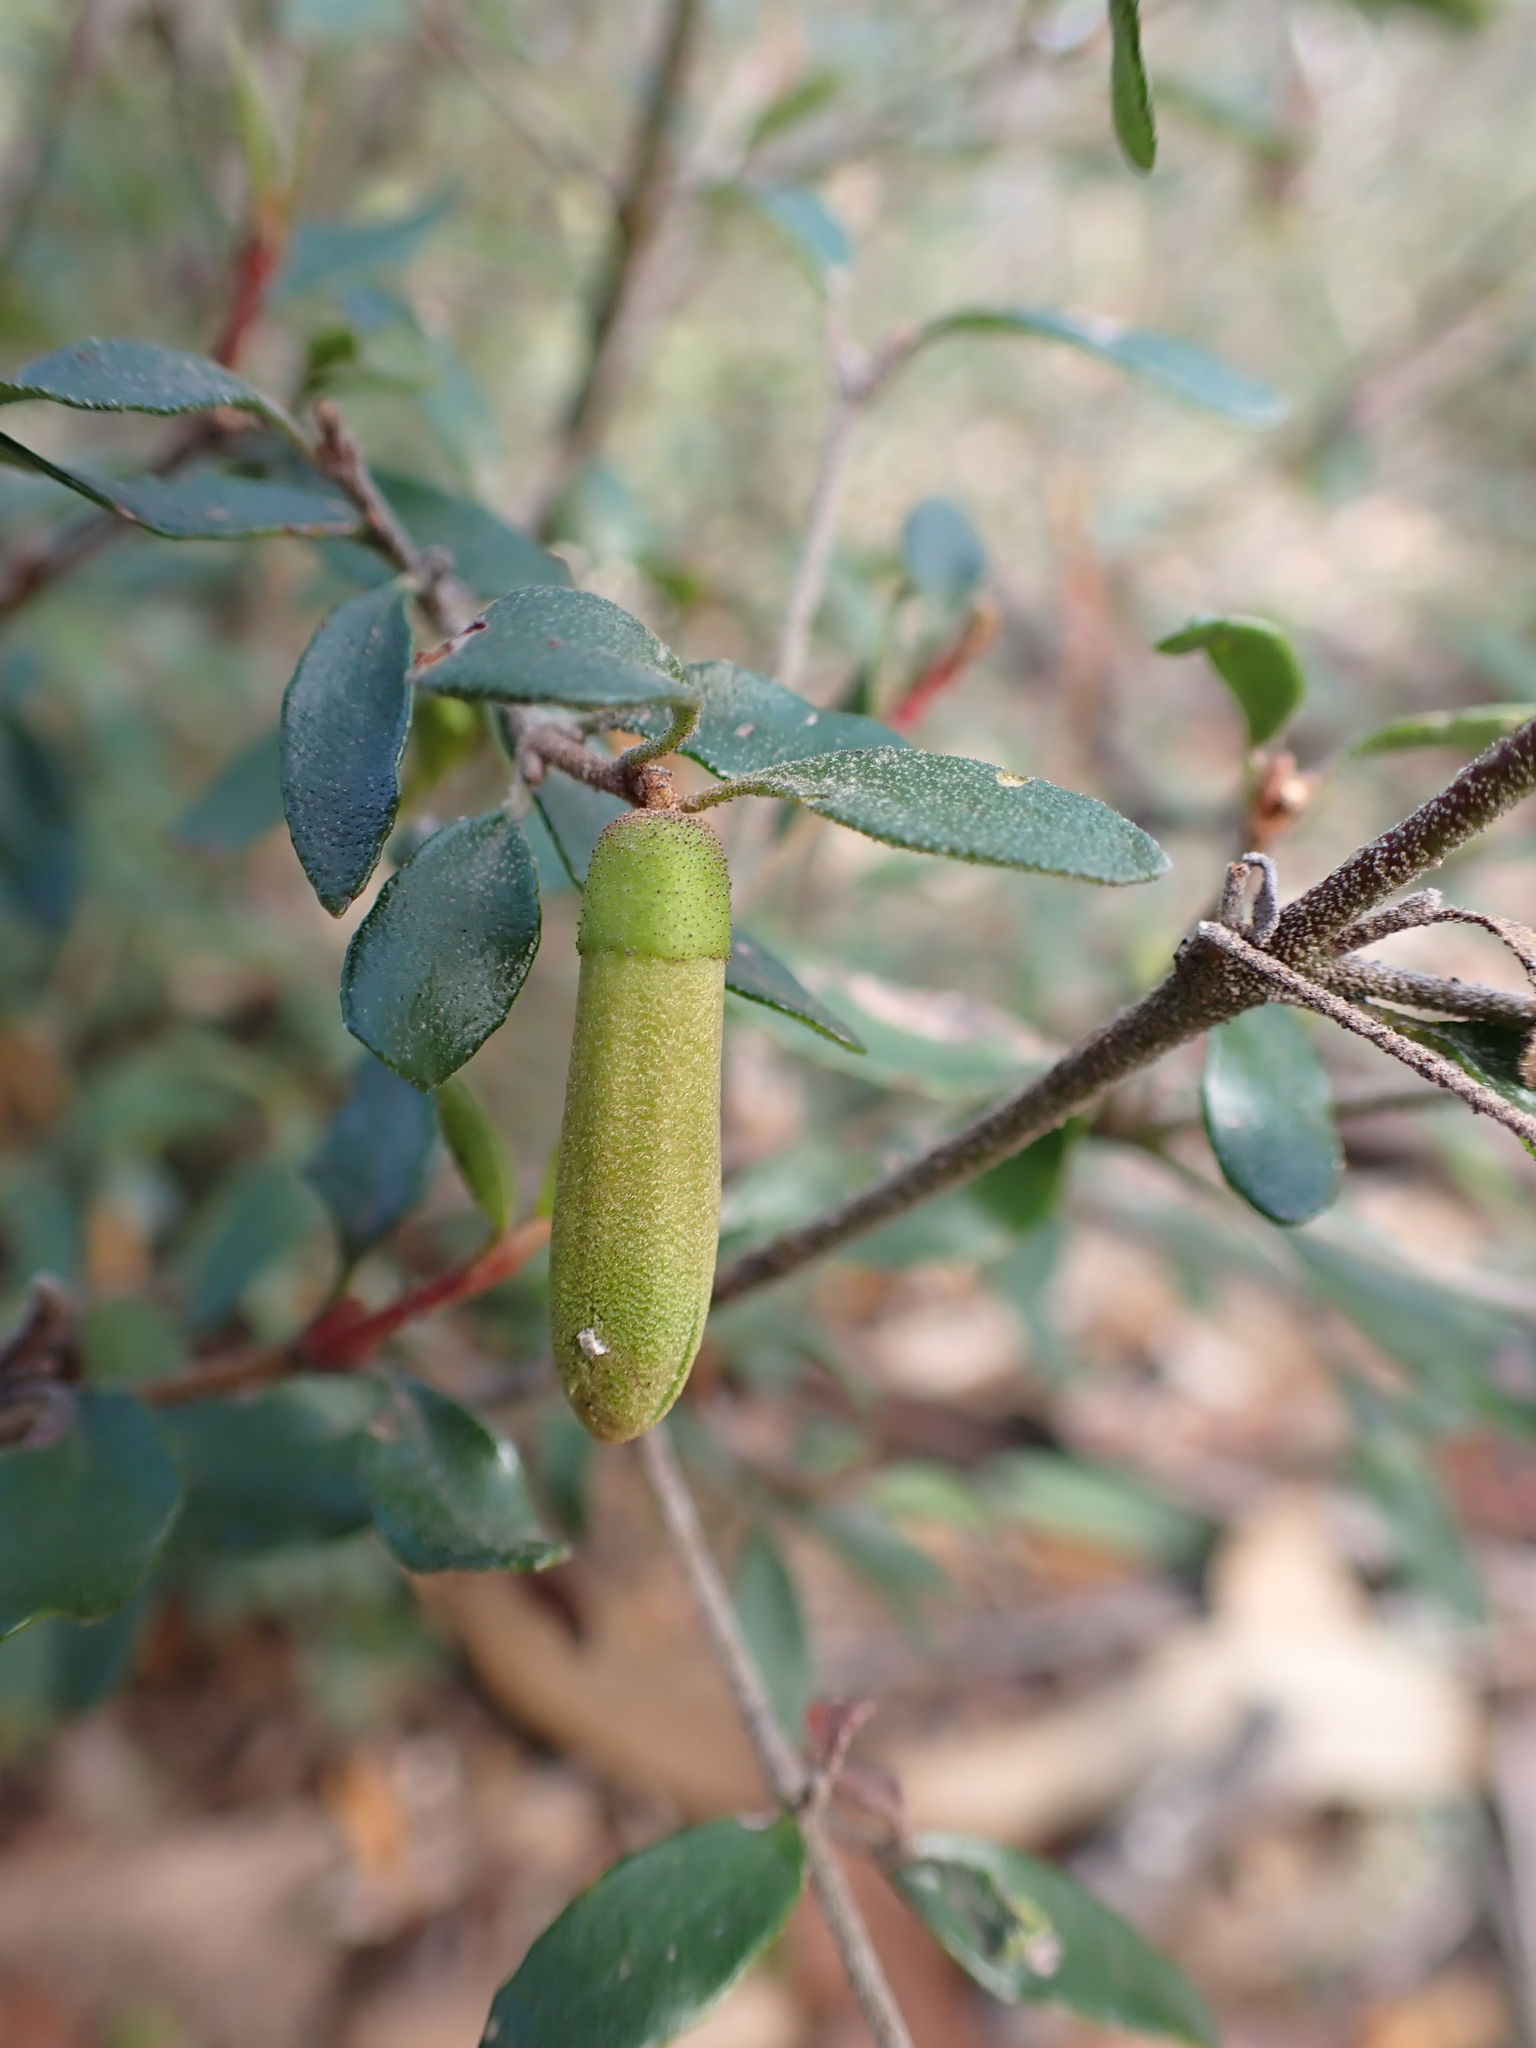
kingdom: Plantae
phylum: Tracheophyta
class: Magnoliopsida
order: Sapindales
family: Rutaceae
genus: Correa
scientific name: Correa glabra
